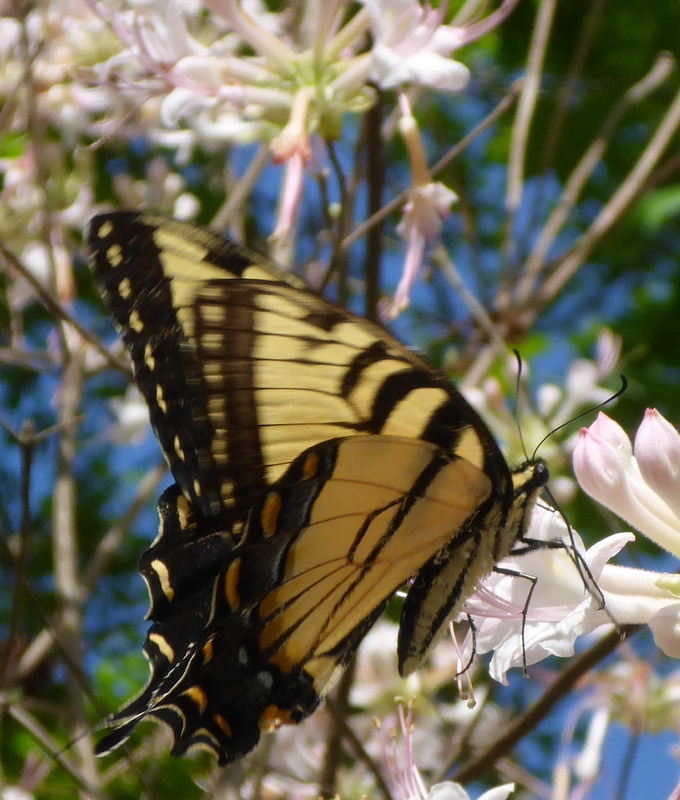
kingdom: Animalia
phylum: Arthropoda
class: Insecta
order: Lepidoptera
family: Papilionidae
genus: Papilio
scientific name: Papilio glaucus
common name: Tiger swallowtail
